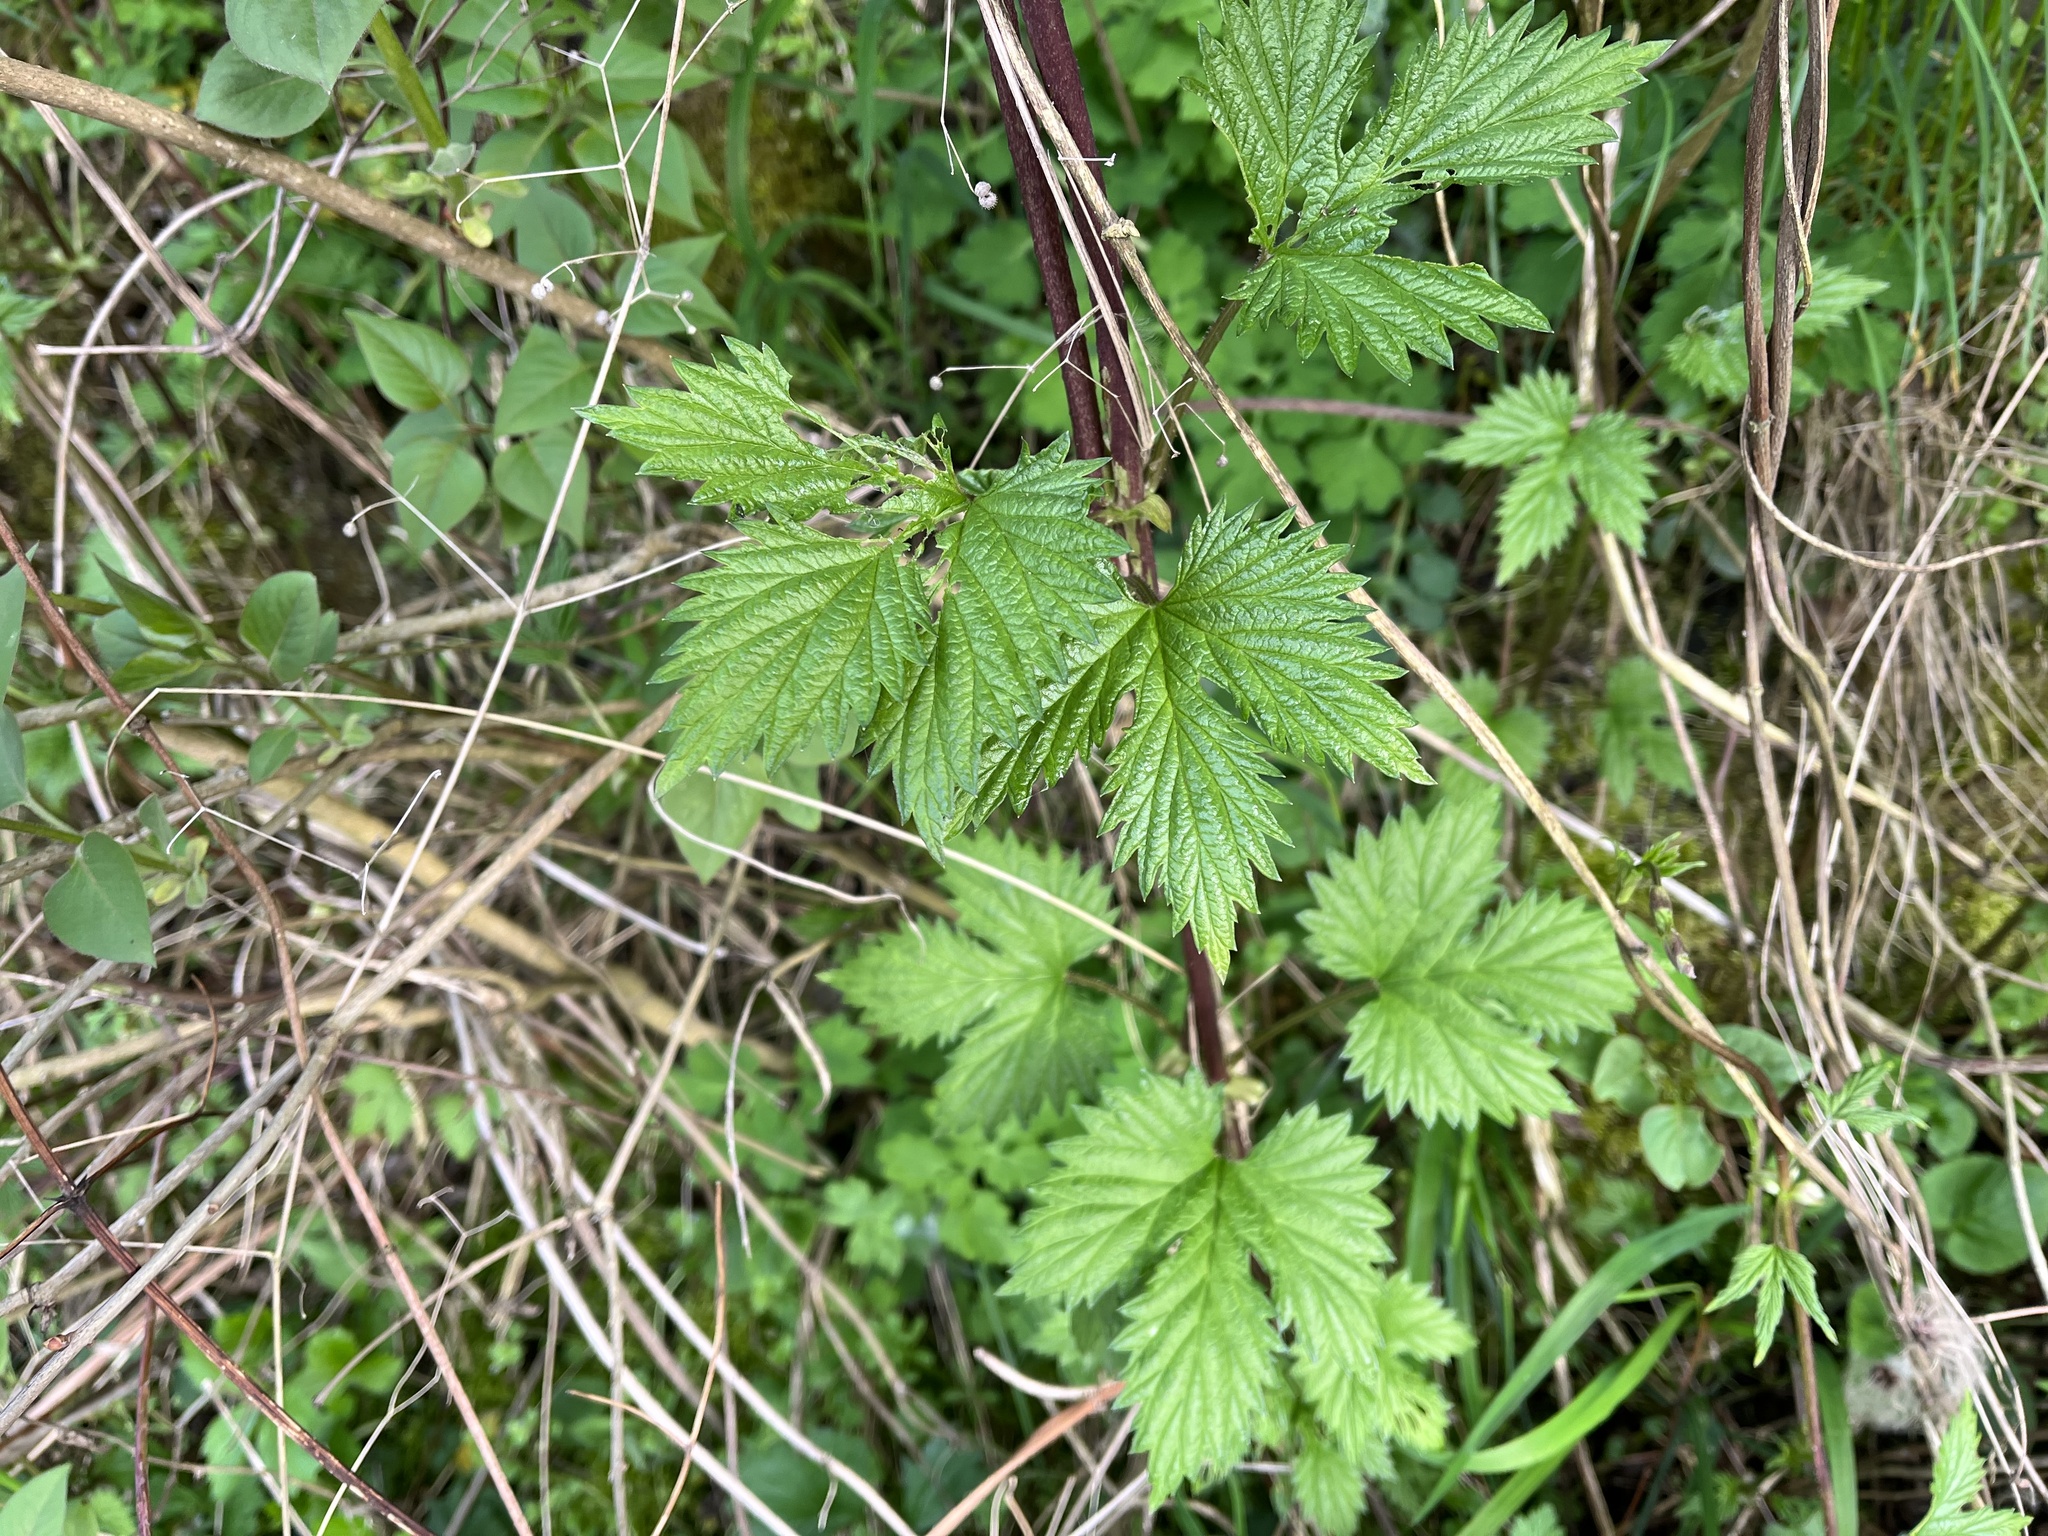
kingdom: Plantae
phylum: Tracheophyta
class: Magnoliopsida
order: Rosales
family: Cannabaceae
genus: Humulus
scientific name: Humulus lupulus
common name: Hop
